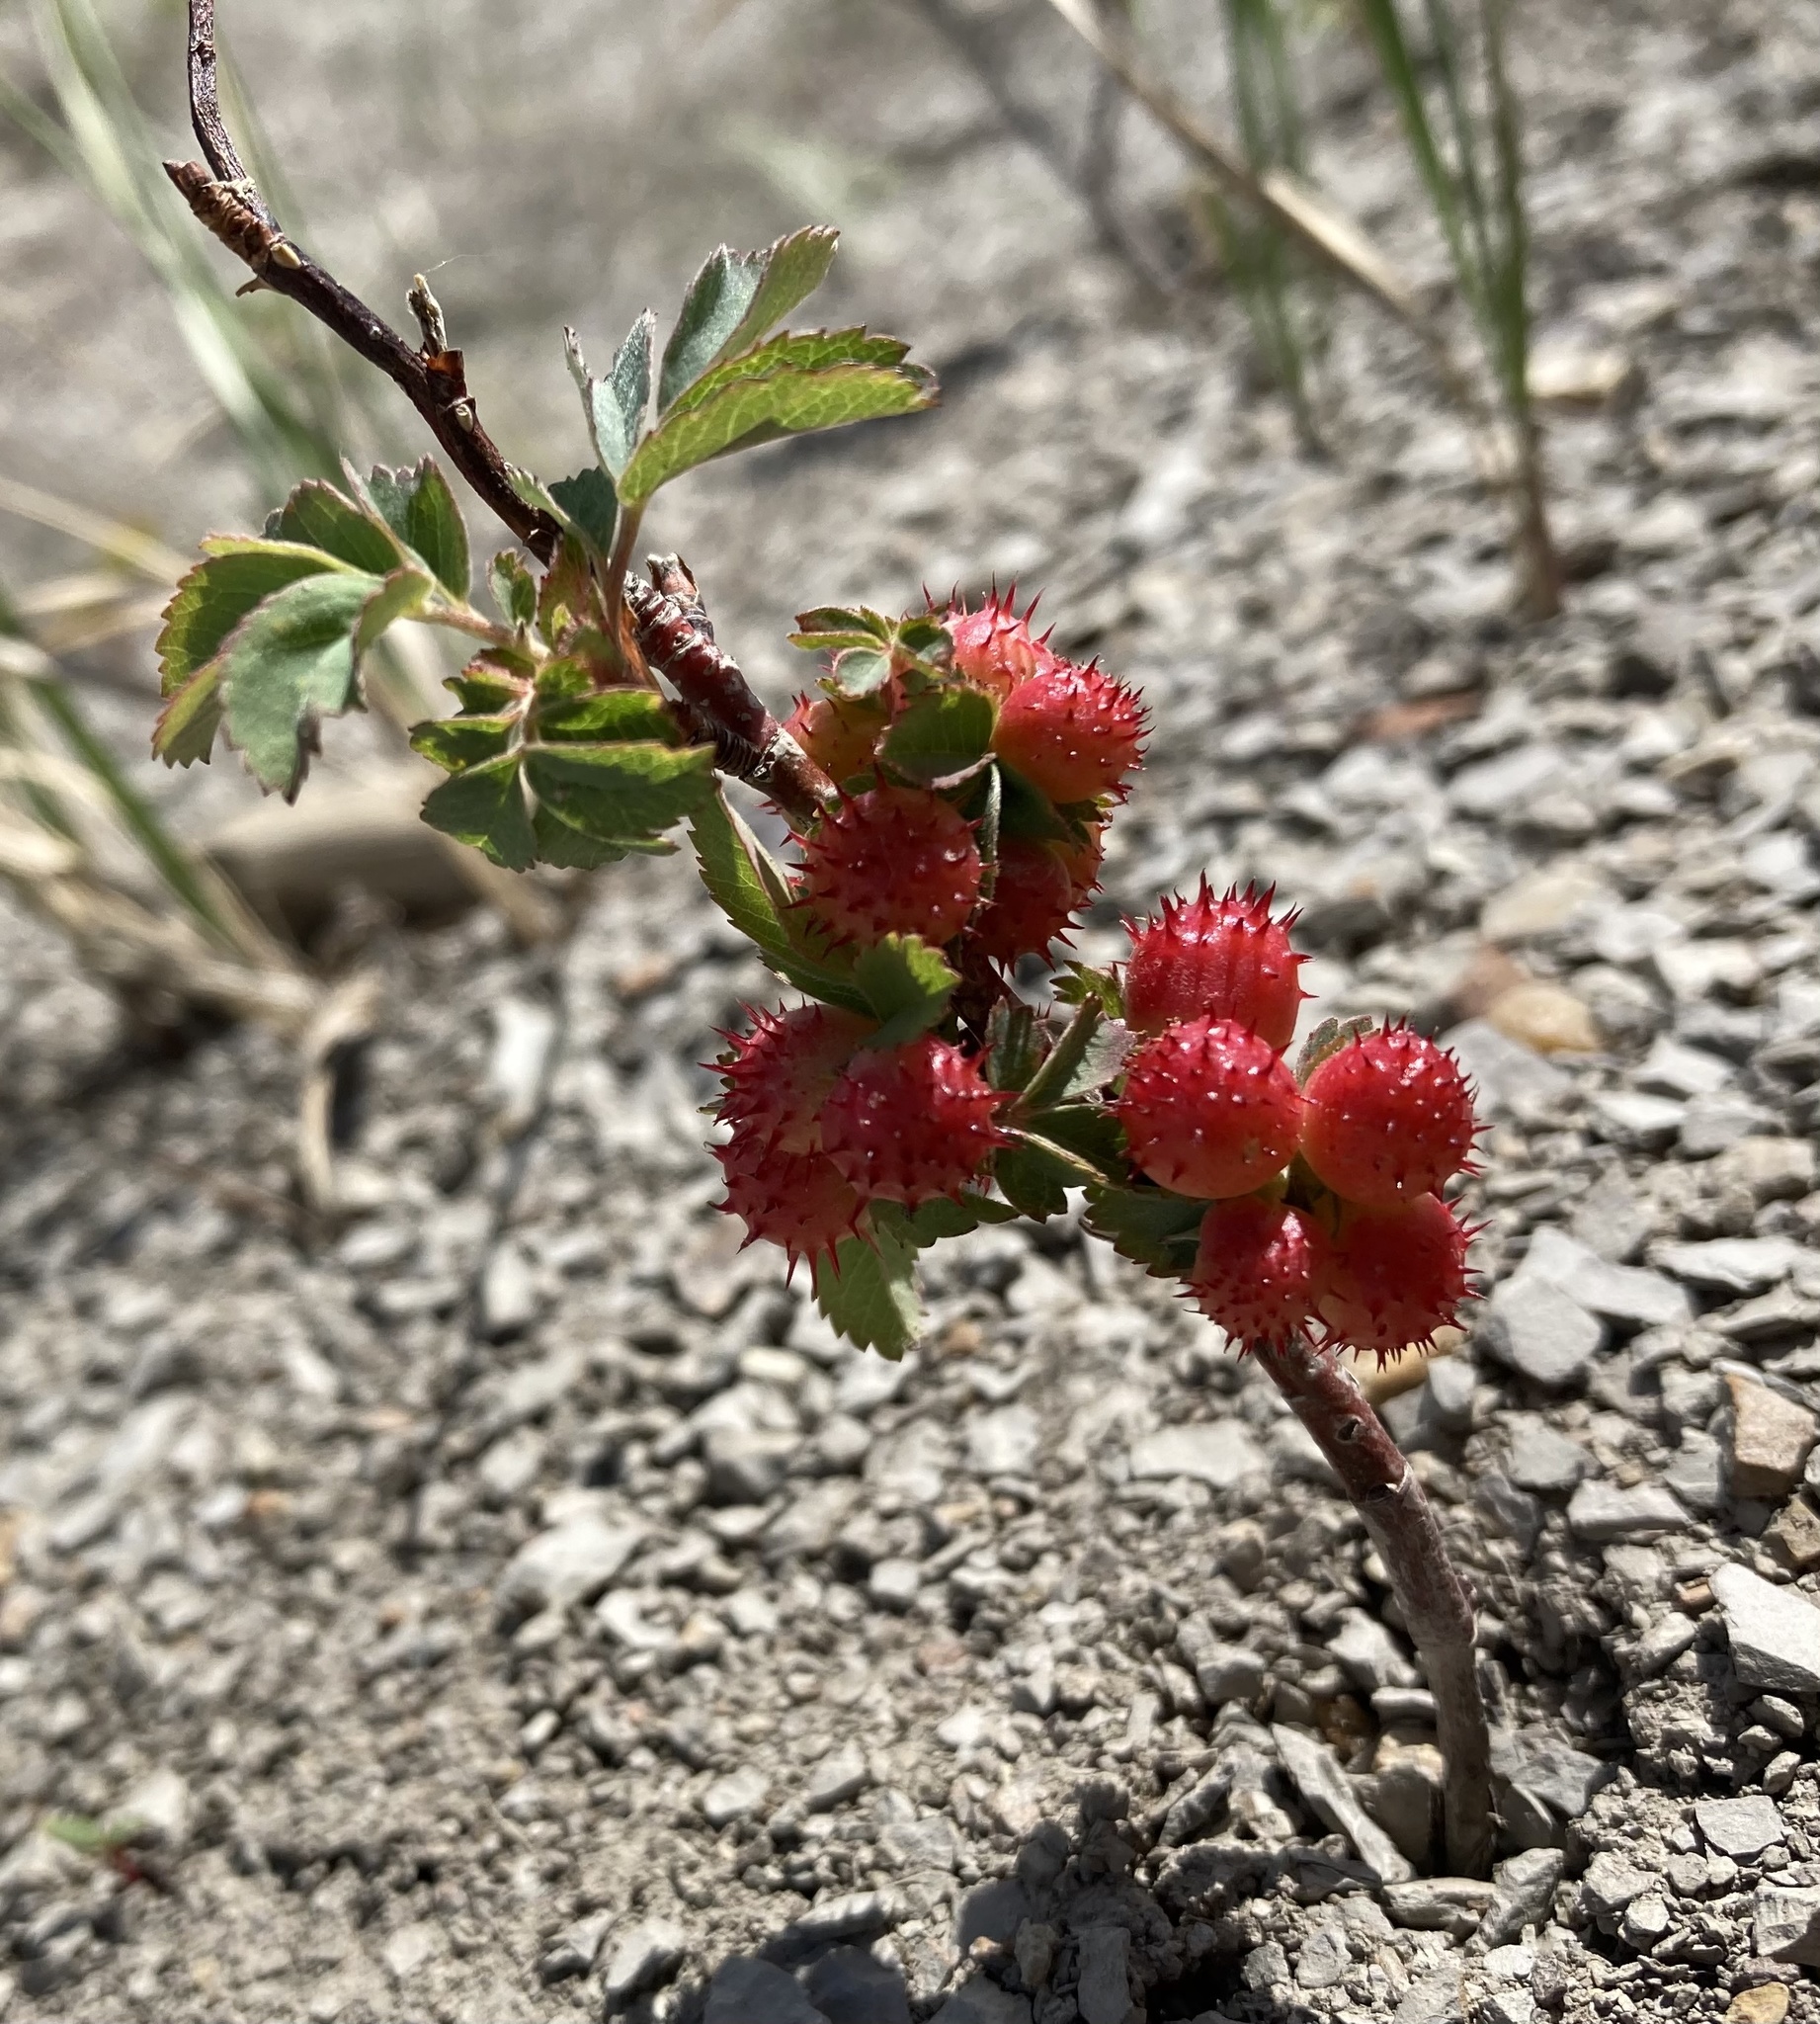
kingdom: Animalia
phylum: Arthropoda
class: Insecta
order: Hymenoptera
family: Cynipidae
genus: Diplolepis
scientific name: Diplolepis polita
